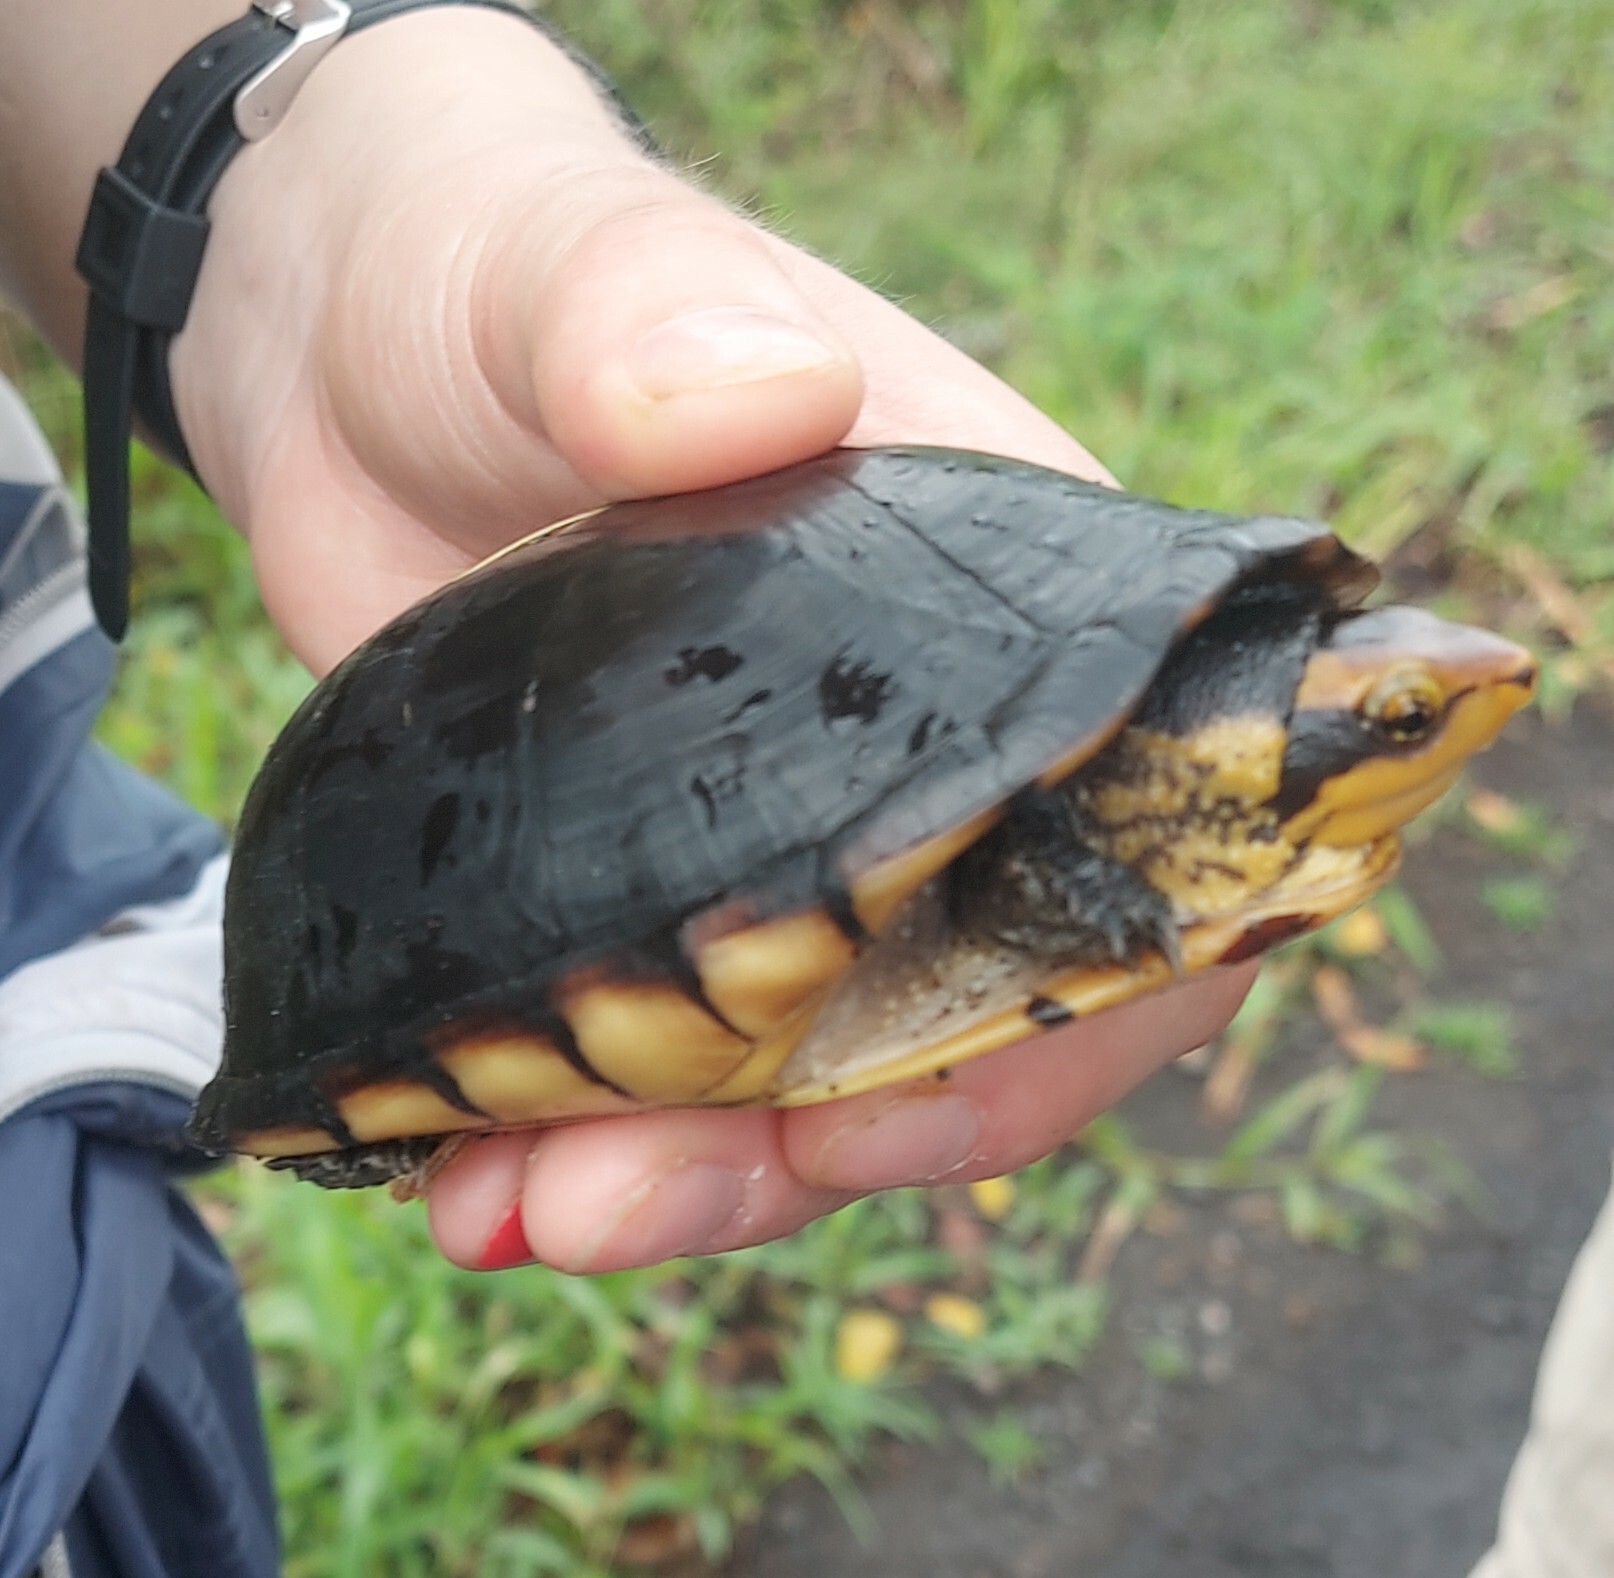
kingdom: Animalia
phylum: Chordata
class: Testudines
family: Kinosternidae
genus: Kinosternon
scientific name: Kinosternon leucostomum
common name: White-lipped mud turtle
